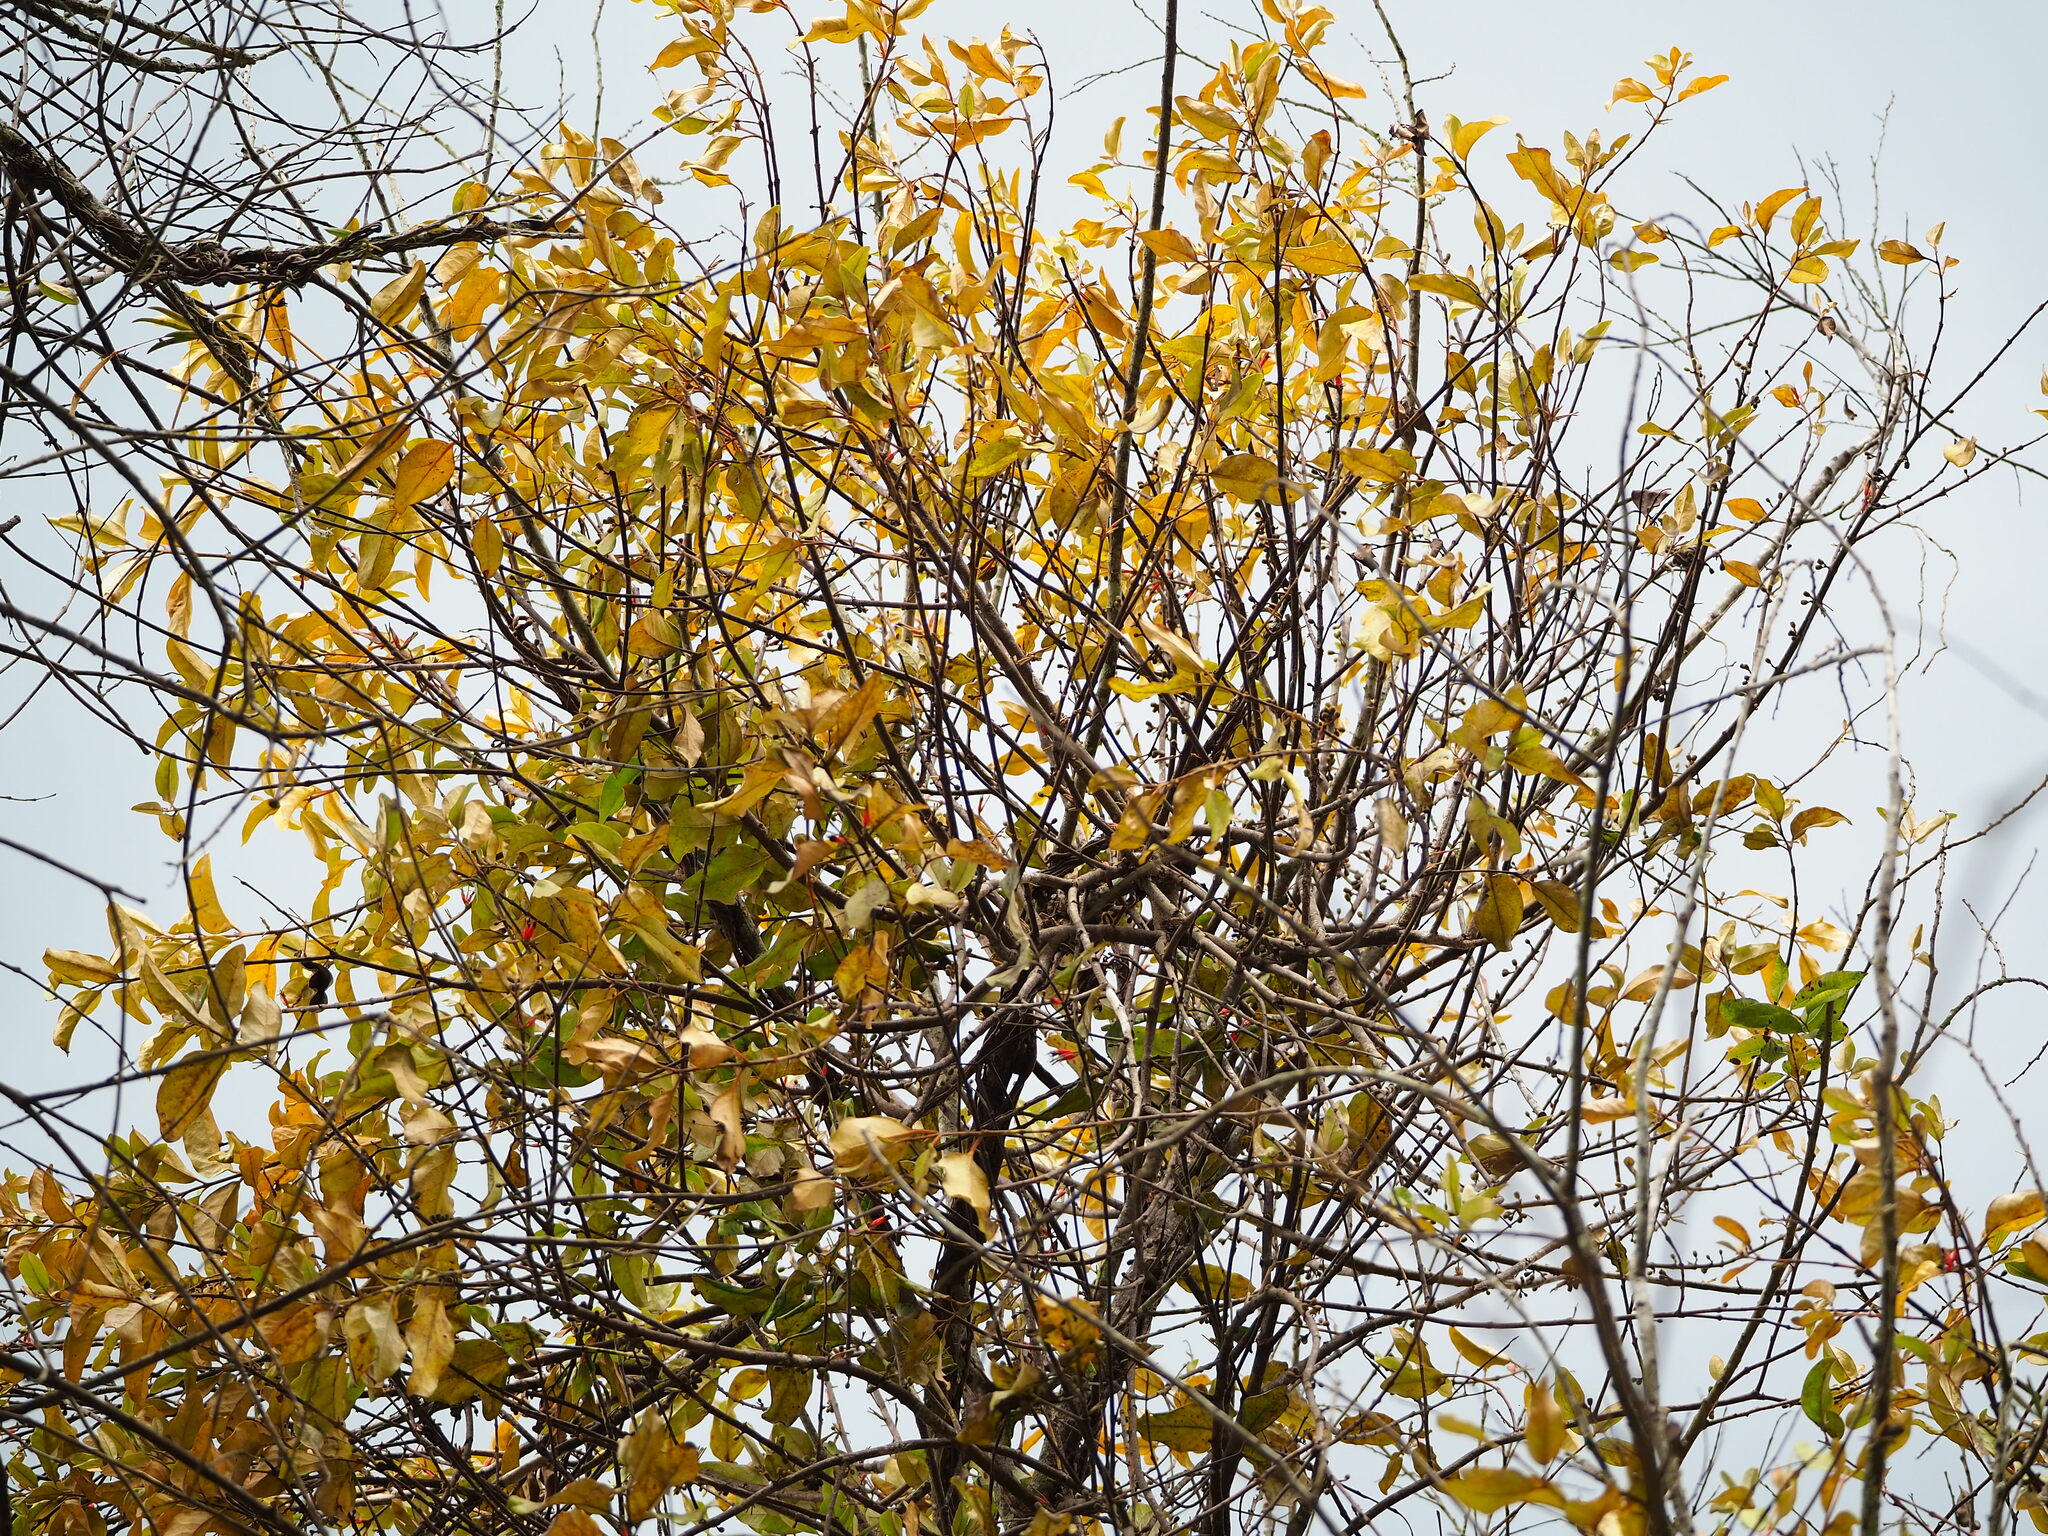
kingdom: Plantae
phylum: Tracheophyta
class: Magnoliopsida
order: Santalales
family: Loranthaceae
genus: Taxillus
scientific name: Taxillus liquidambaricola
